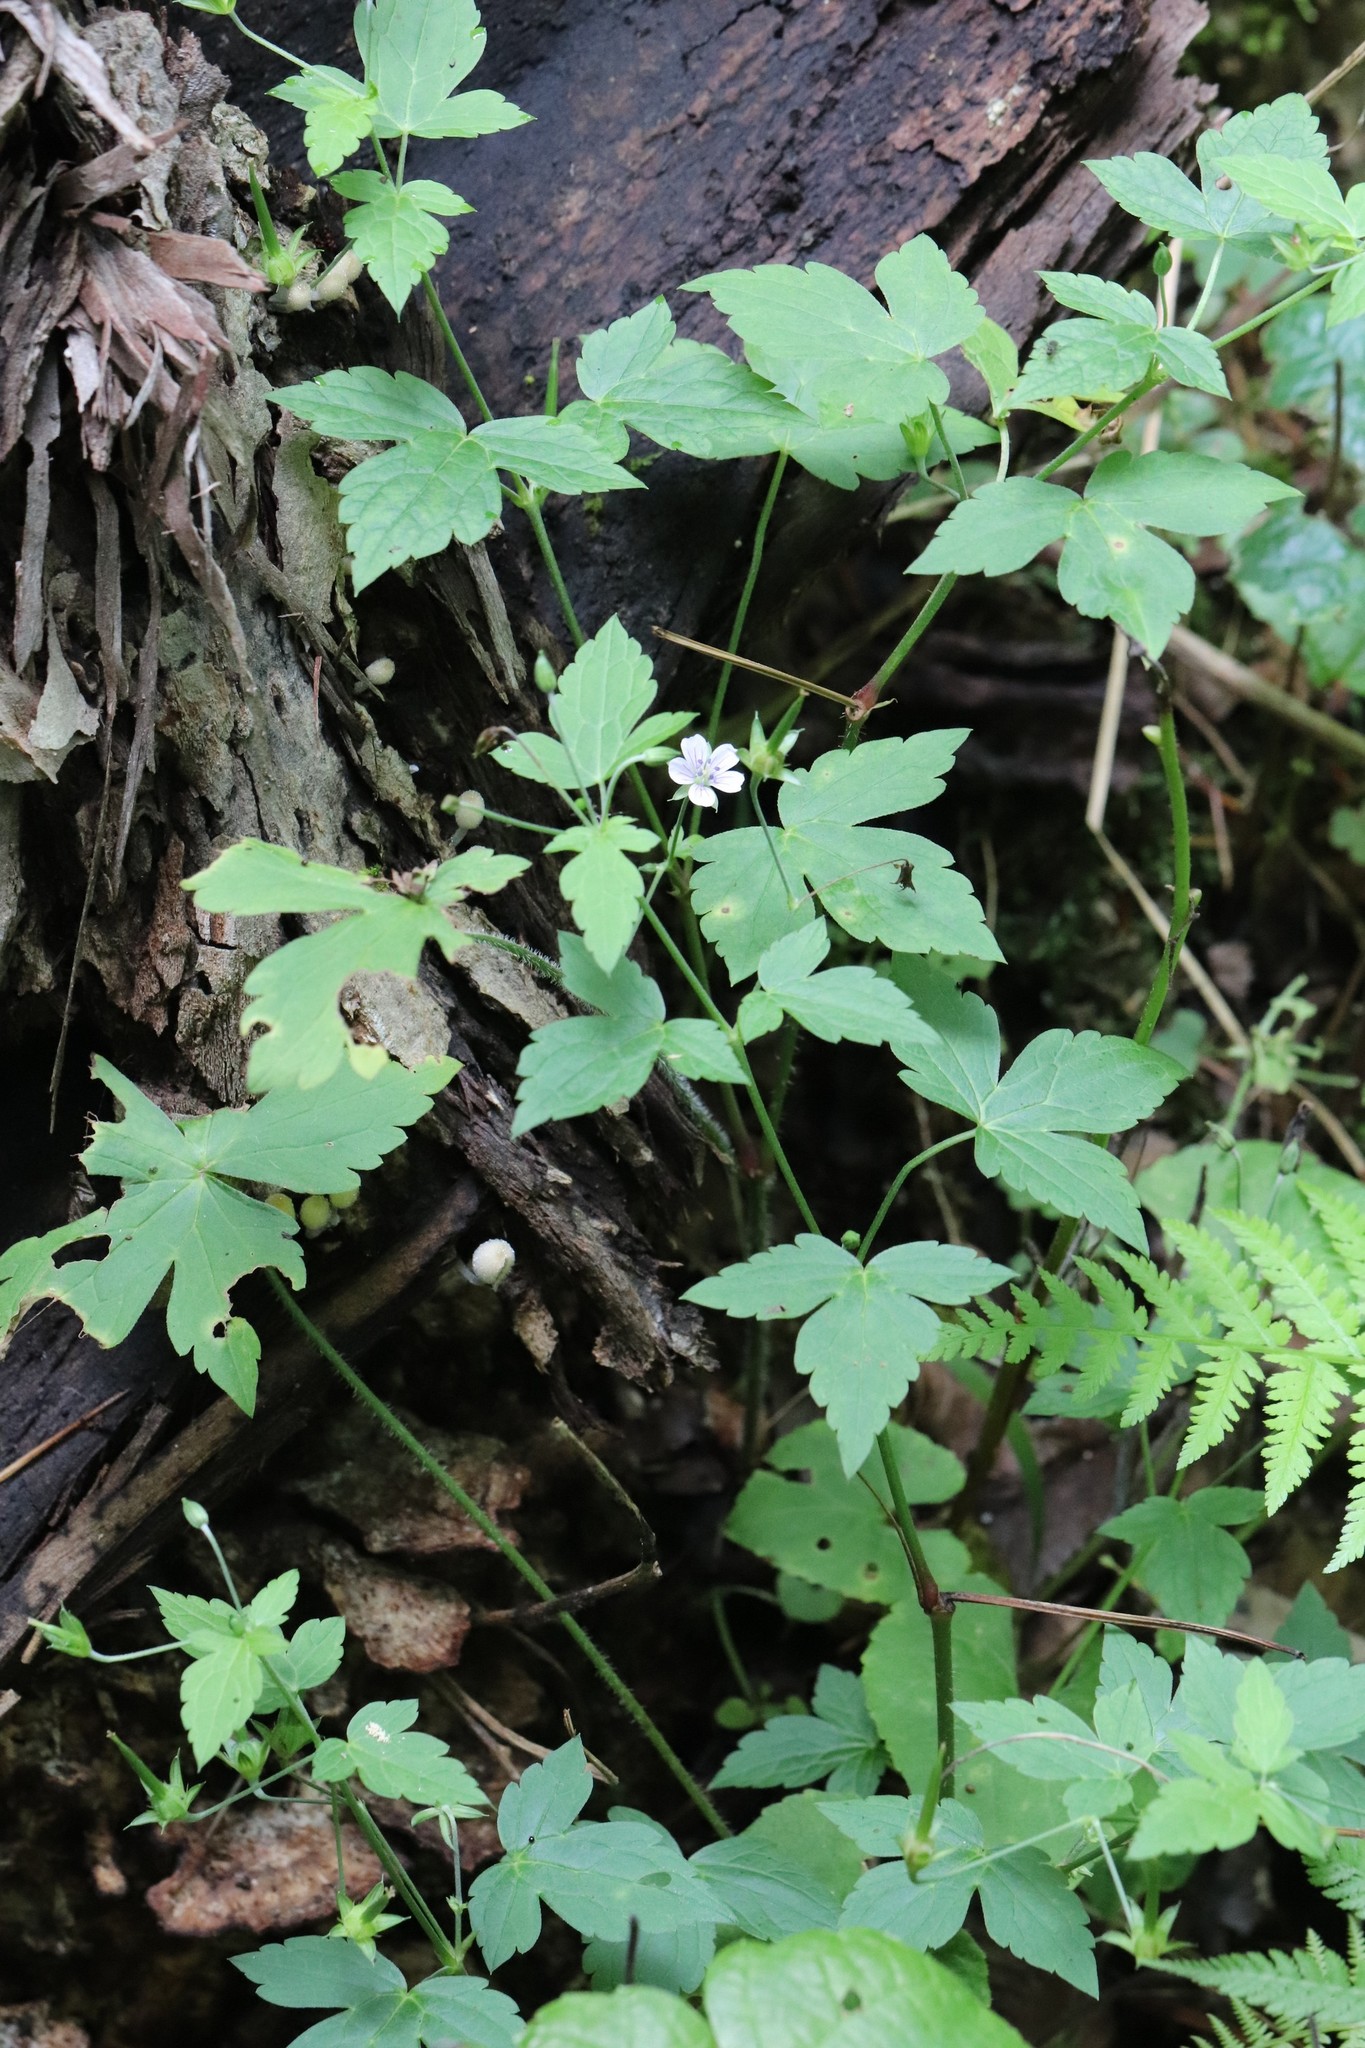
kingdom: Plantae
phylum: Tracheophyta
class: Magnoliopsida
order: Geraniales
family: Geraniaceae
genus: Geranium
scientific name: Geranium wilfordii
